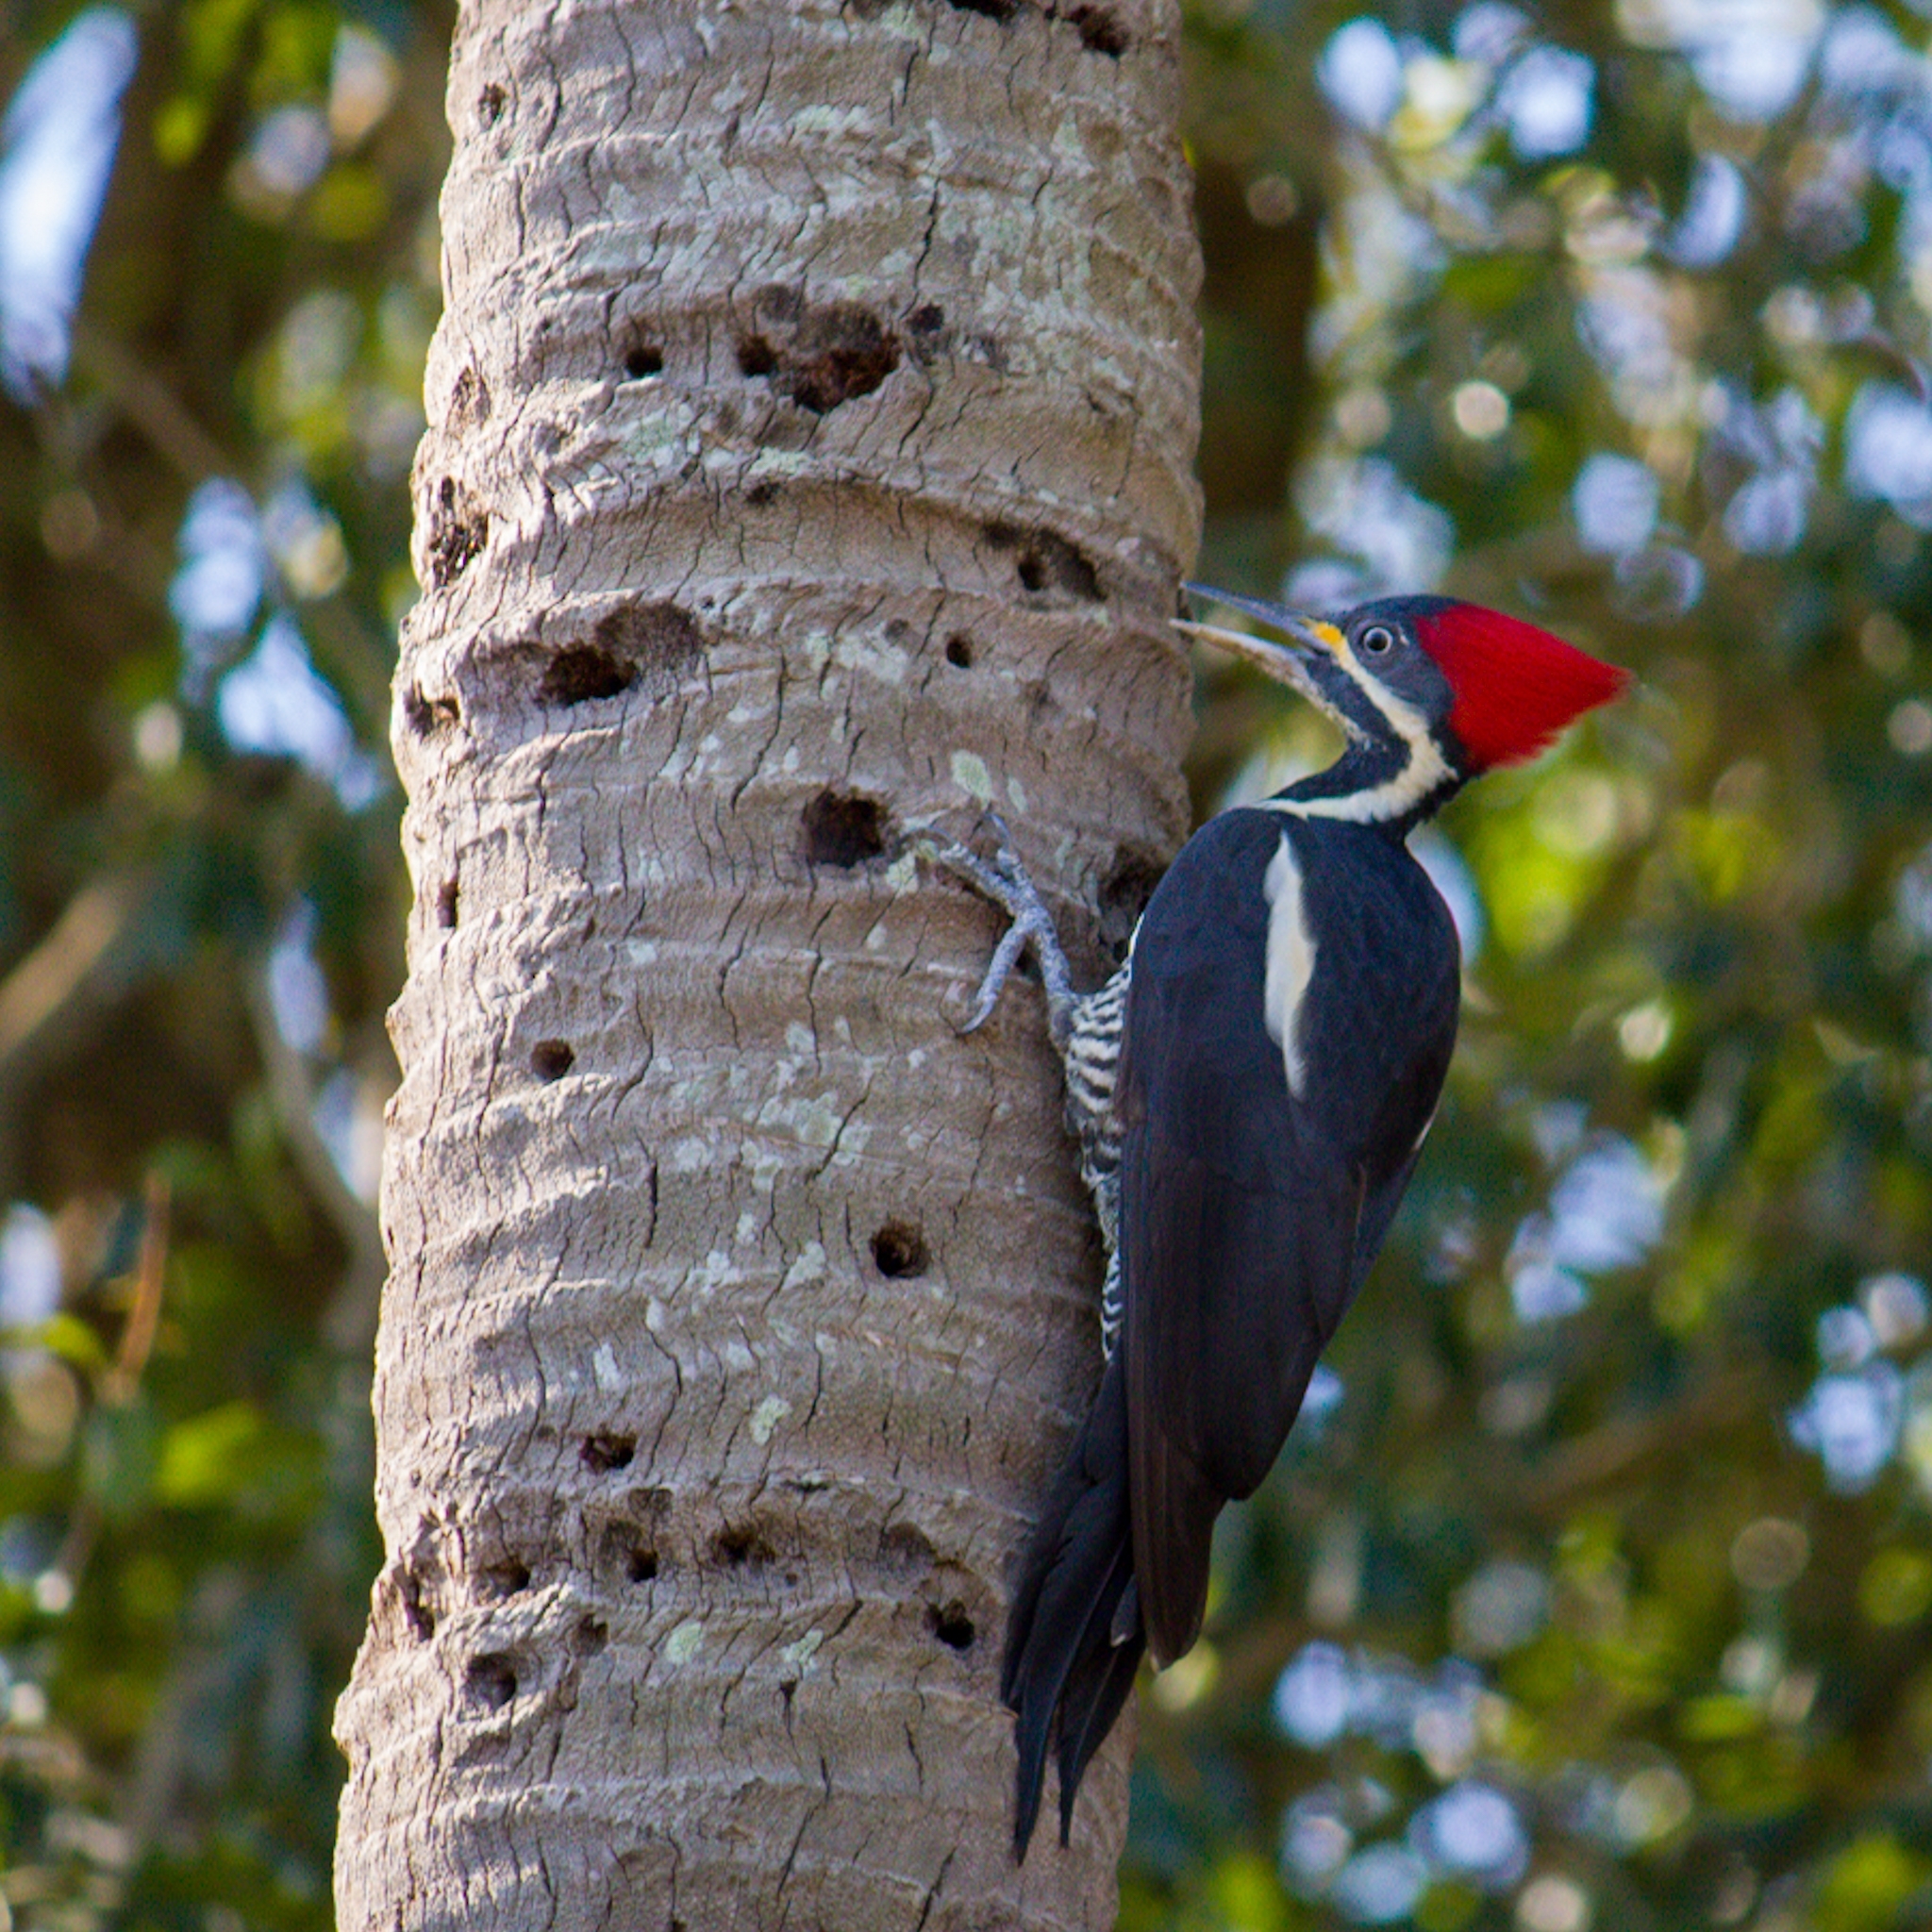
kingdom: Animalia
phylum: Chordata
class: Aves
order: Piciformes
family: Picidae
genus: Dryocopus
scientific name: Dryocopus lineatus
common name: Lineated woodpecker
